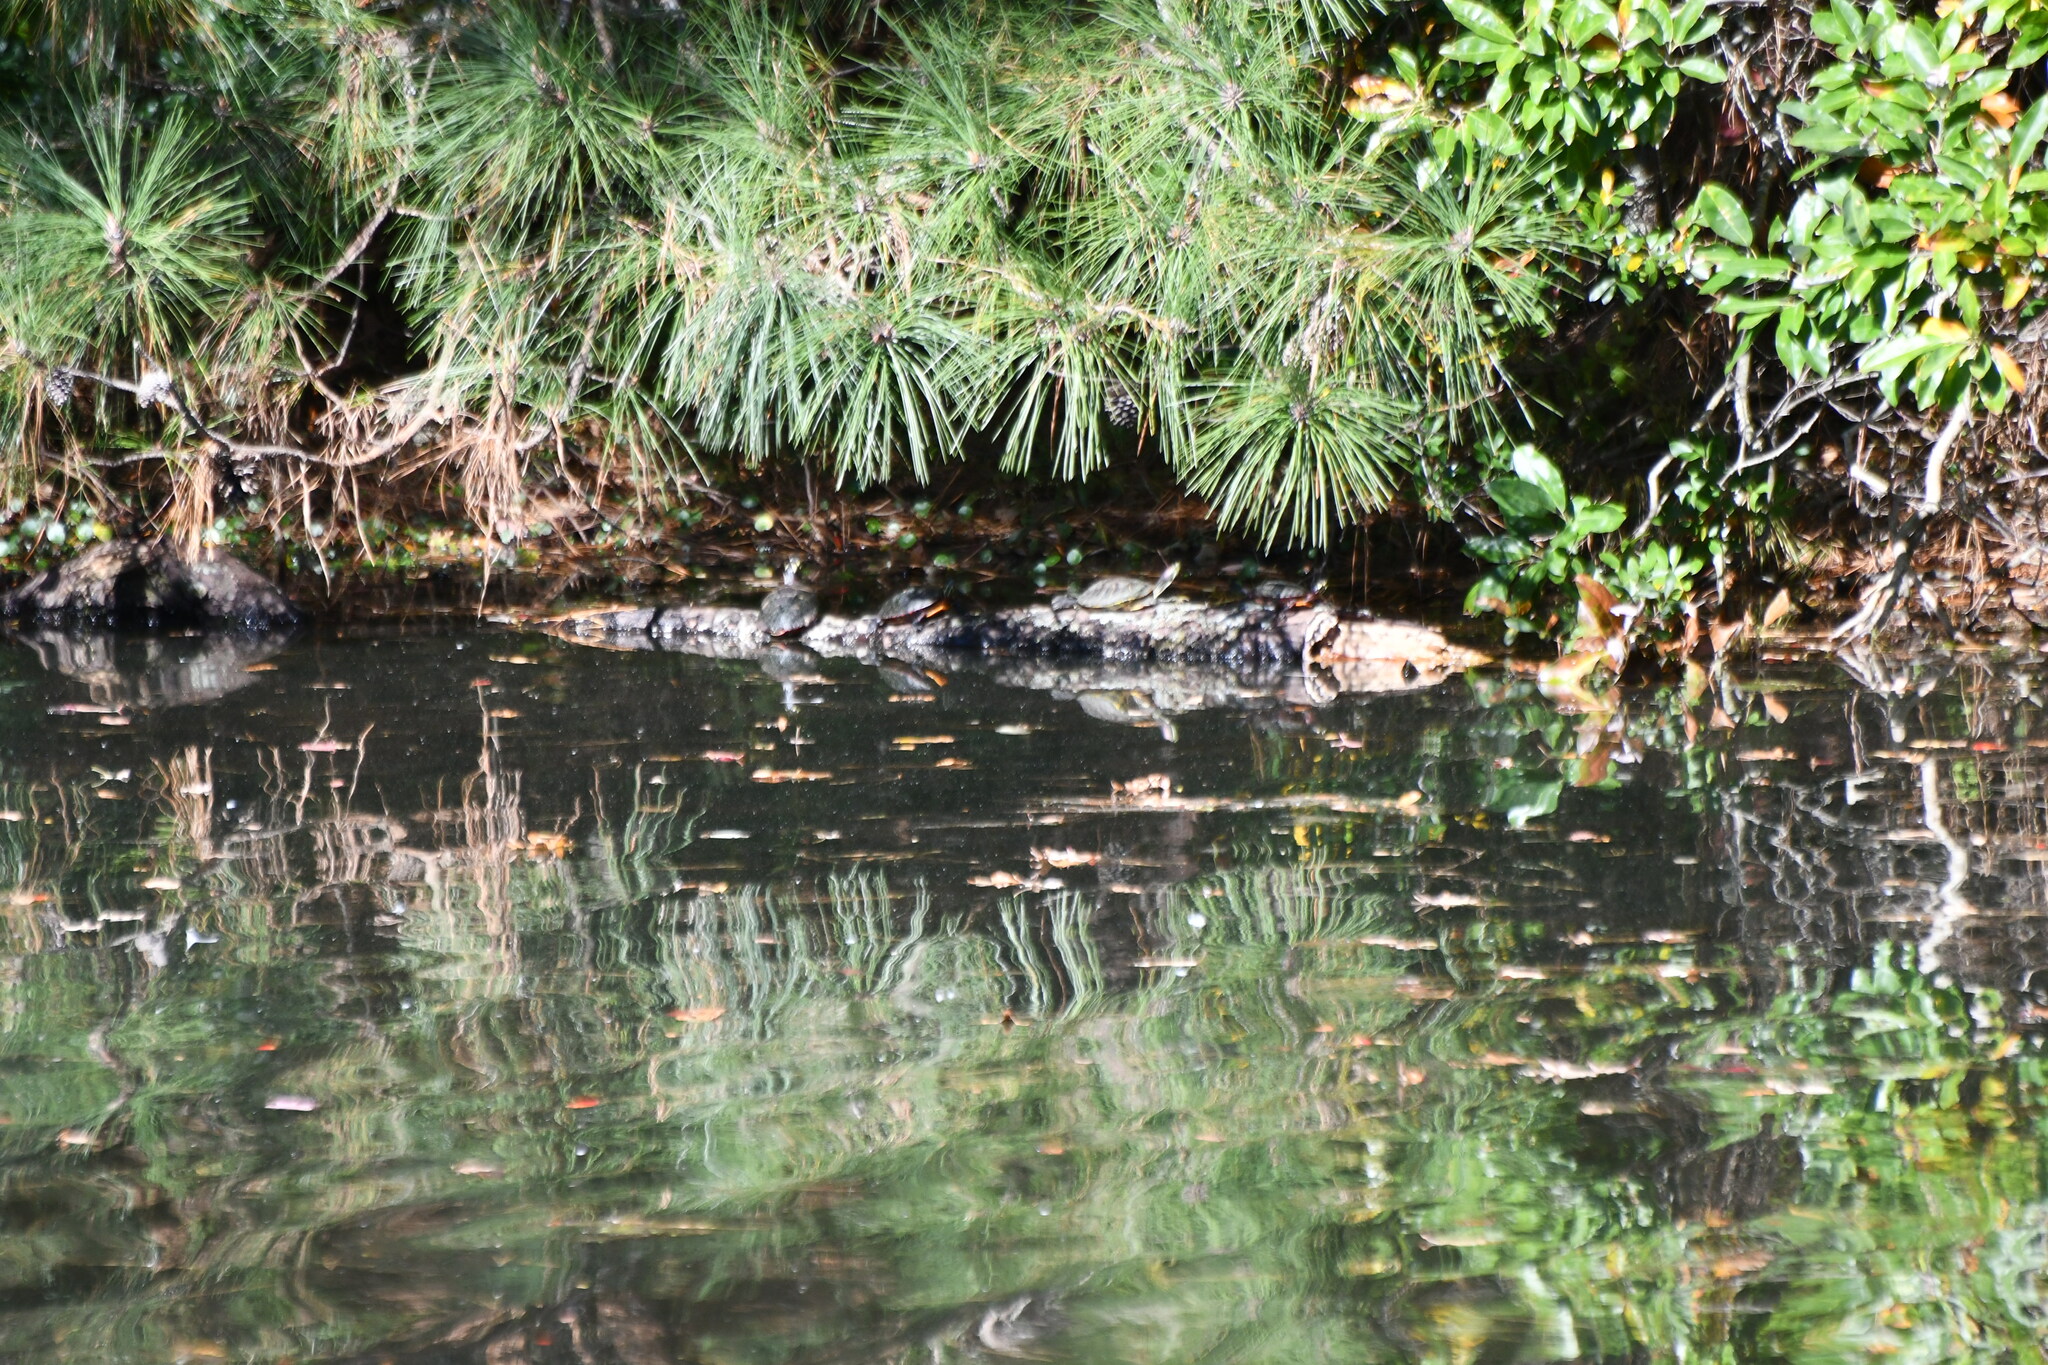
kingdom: Animalia
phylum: Chordata
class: Testudines
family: Emydidae
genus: Trachemys
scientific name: Trachemys scripta
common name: Slider
